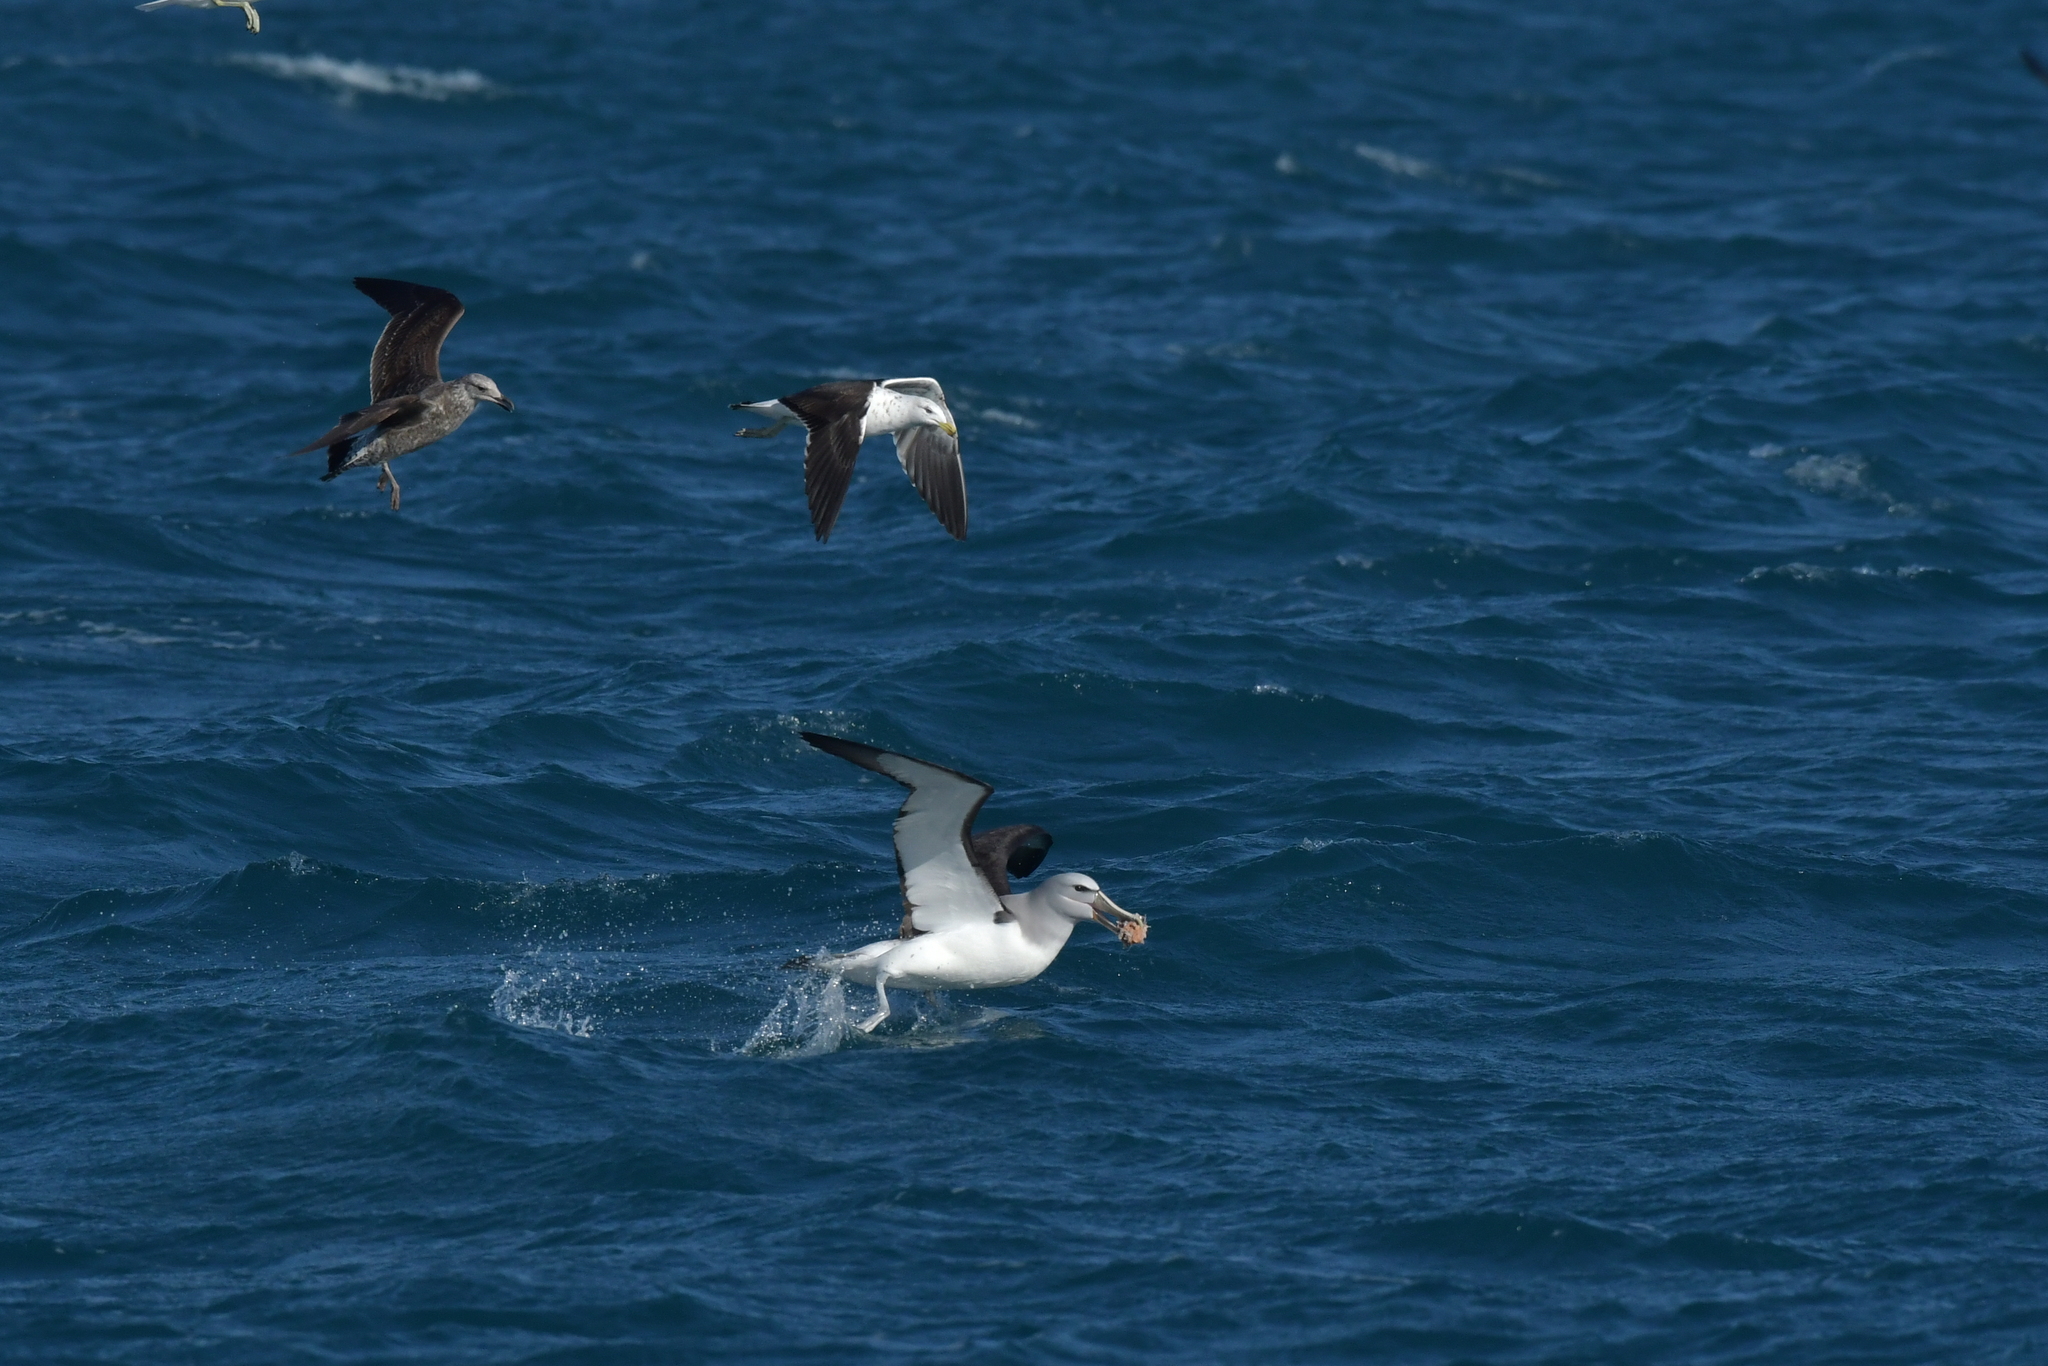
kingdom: Animalia
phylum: Chordata
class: Aves
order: Procellariiformes
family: Diomedeidae
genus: Thalassarche
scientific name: Thalassarche salvini
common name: Salvin's albatross
